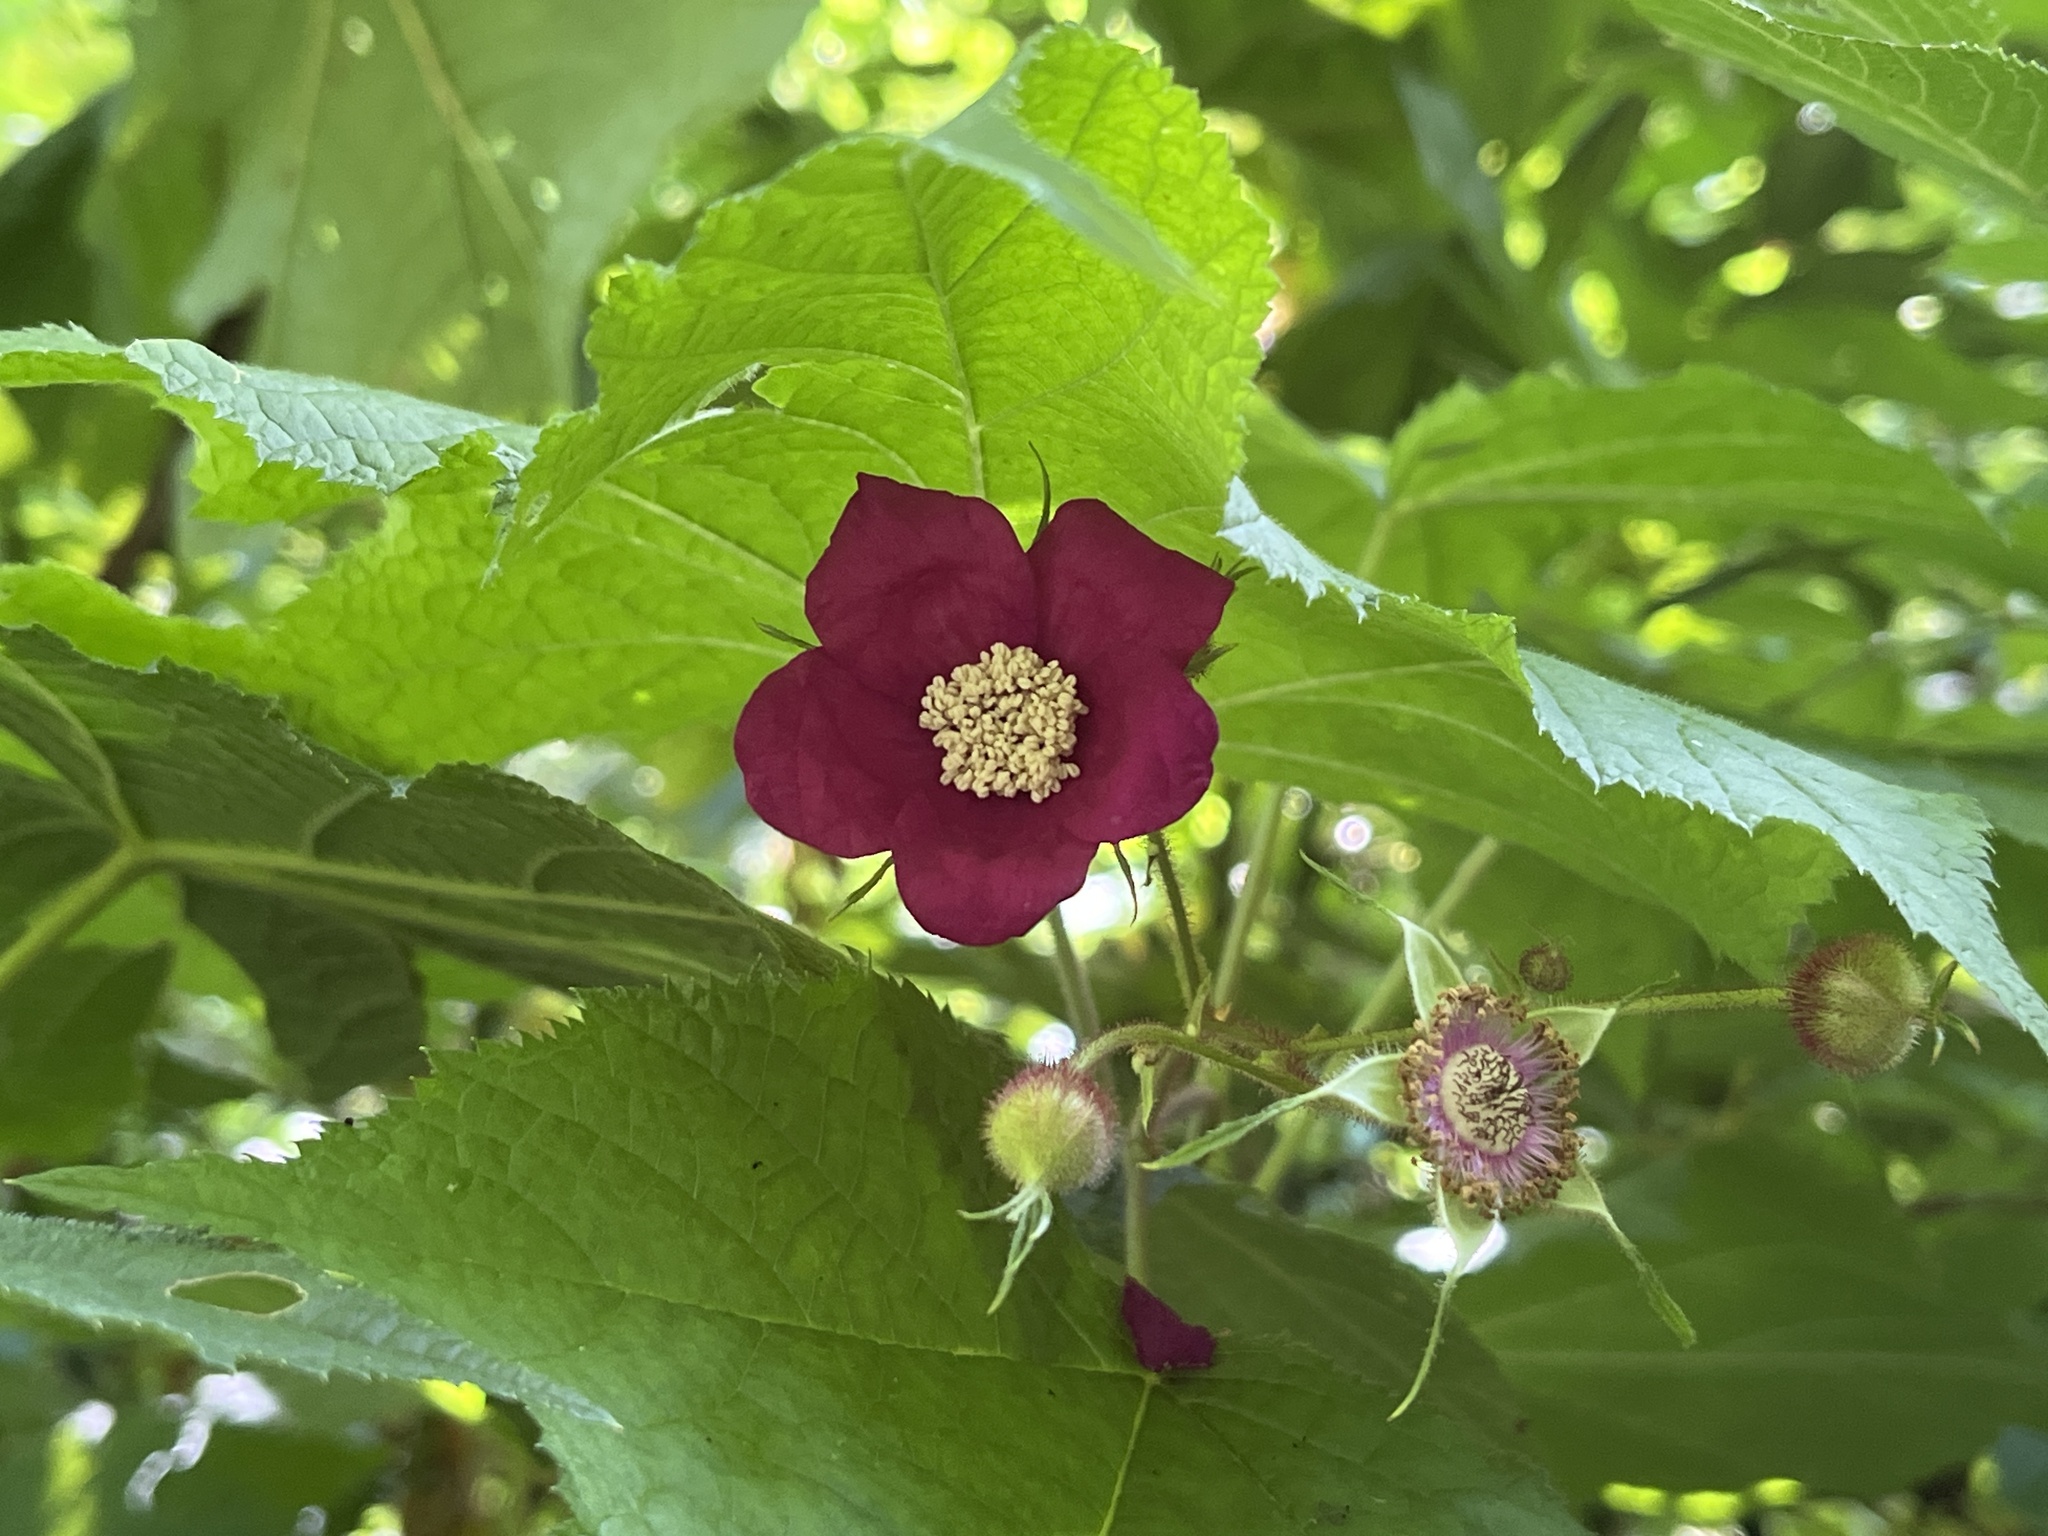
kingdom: Plantae
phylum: Tracheophyta
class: Magnoliopsida
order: Rosales
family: Rosaceae
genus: Rubus
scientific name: Rubus odoratus
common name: Purple-flowered raspberry
